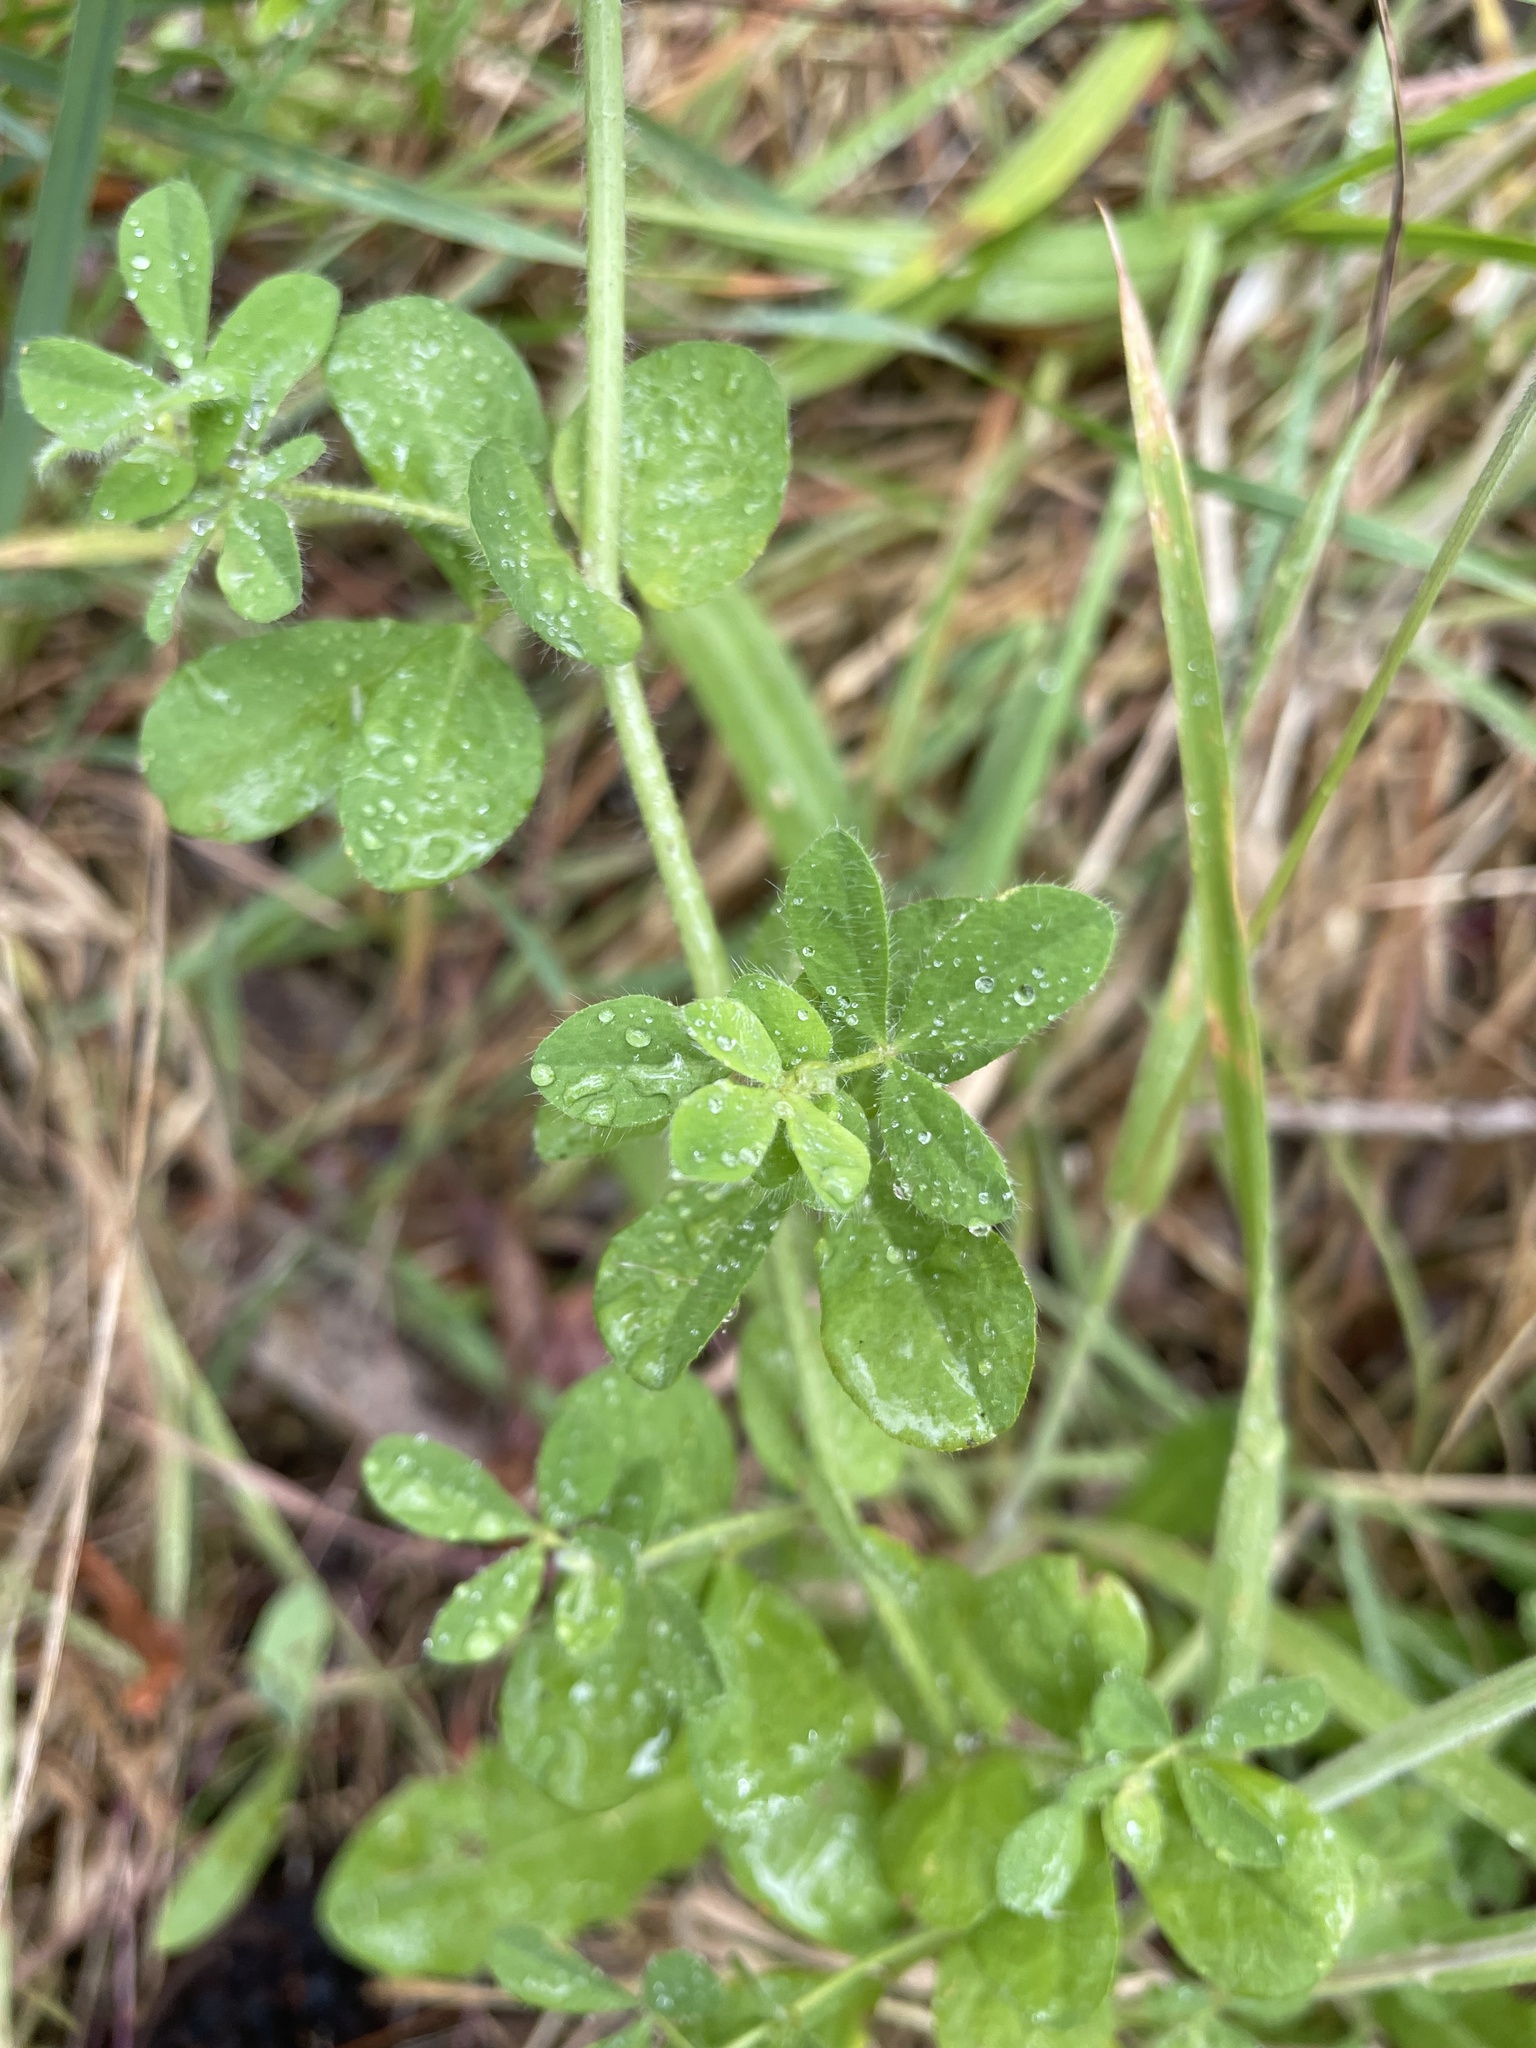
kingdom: Plantae
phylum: Tracheophyta
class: Magnoliopsida
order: Fabales
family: Fabaceae
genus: Lotus
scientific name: Lotus pedunculatus
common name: Greater birdsfoot-trefoil
